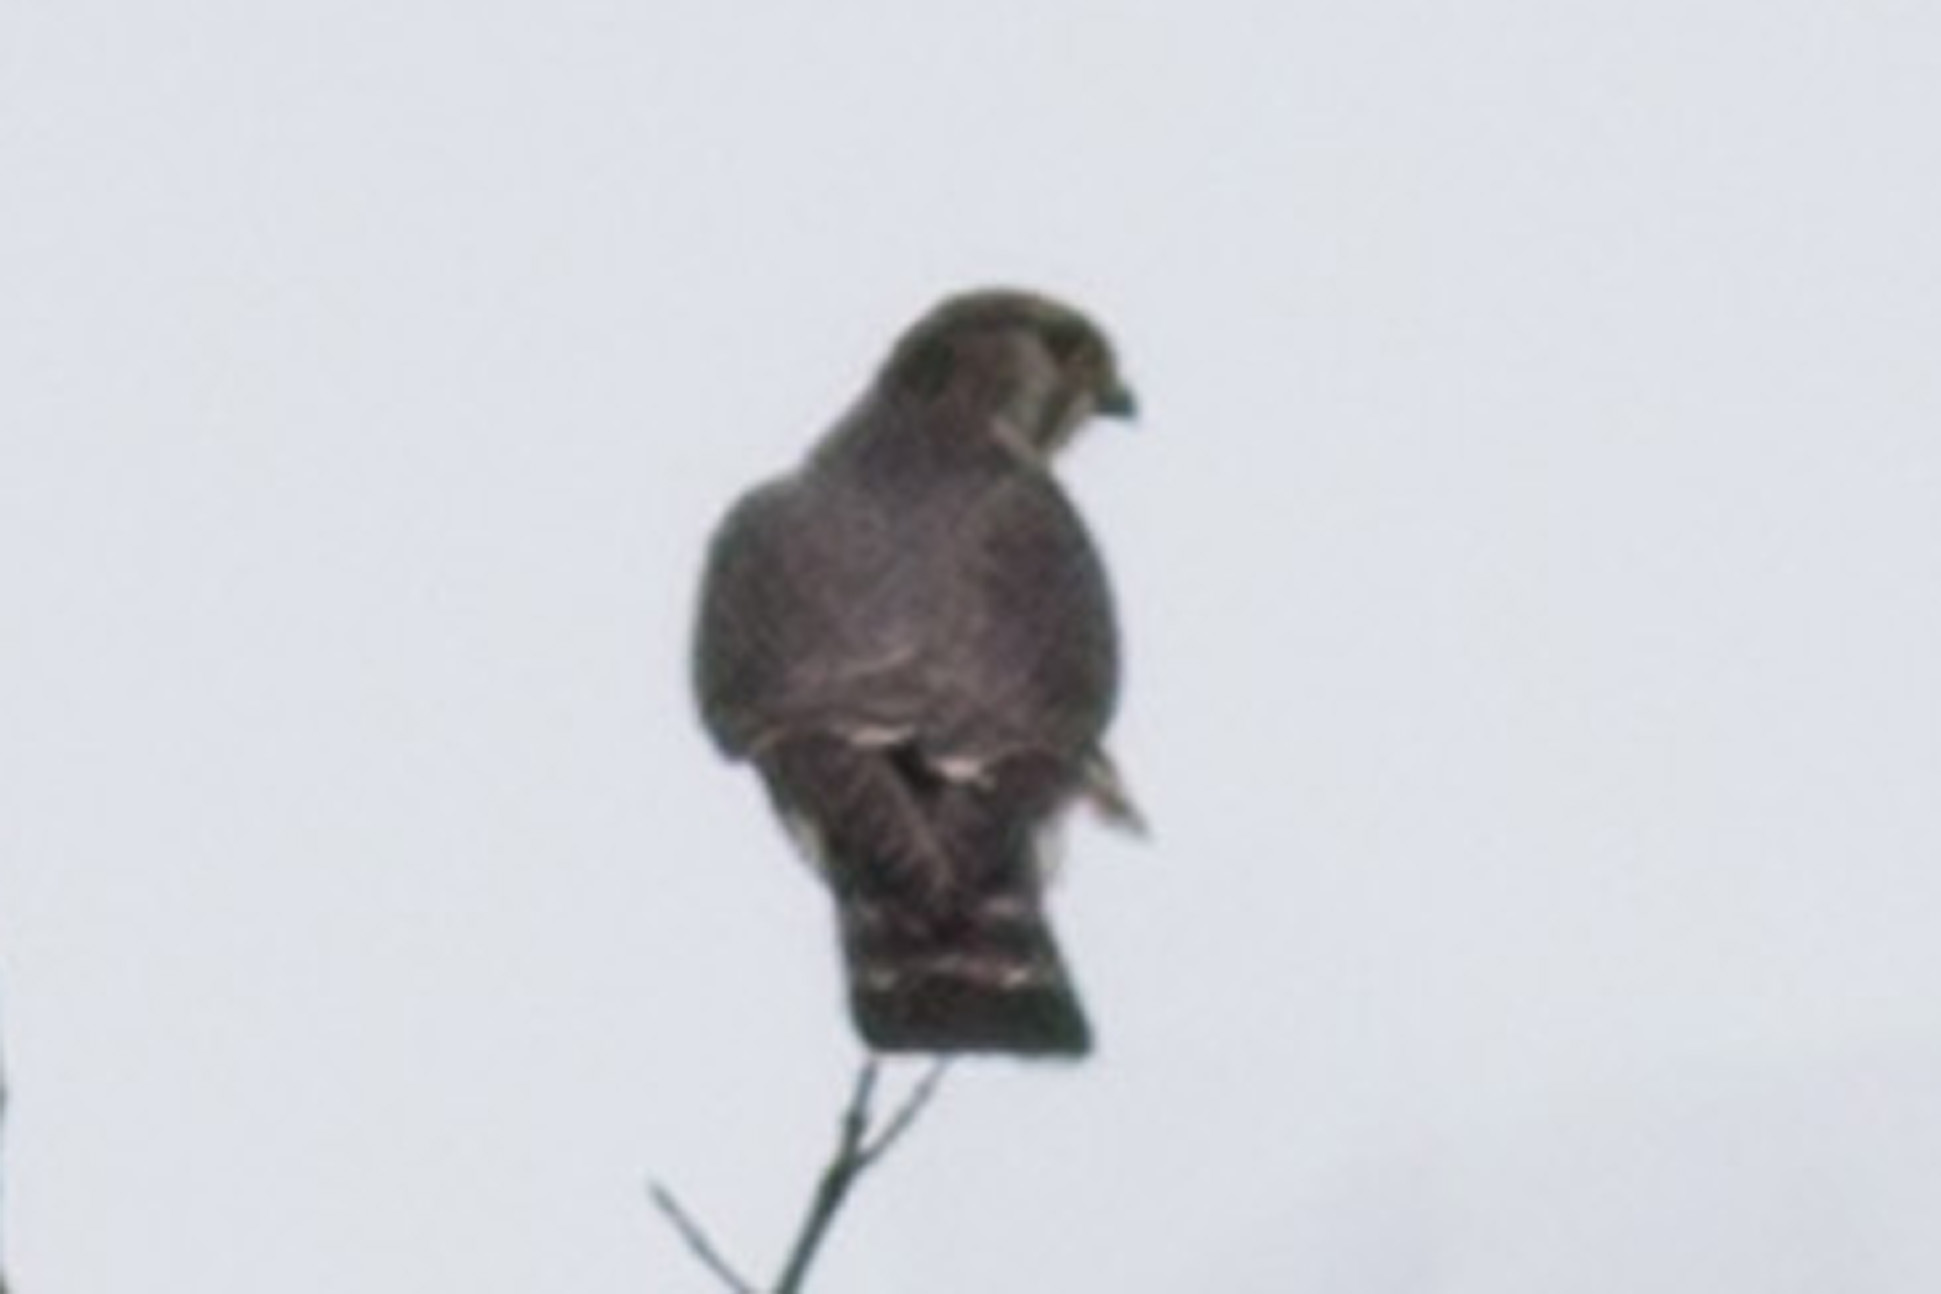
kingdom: Animalia
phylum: Chordata
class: Aves
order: Falconiformes
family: Falconidae
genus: Falco
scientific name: Falco columbarius
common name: Merlin
